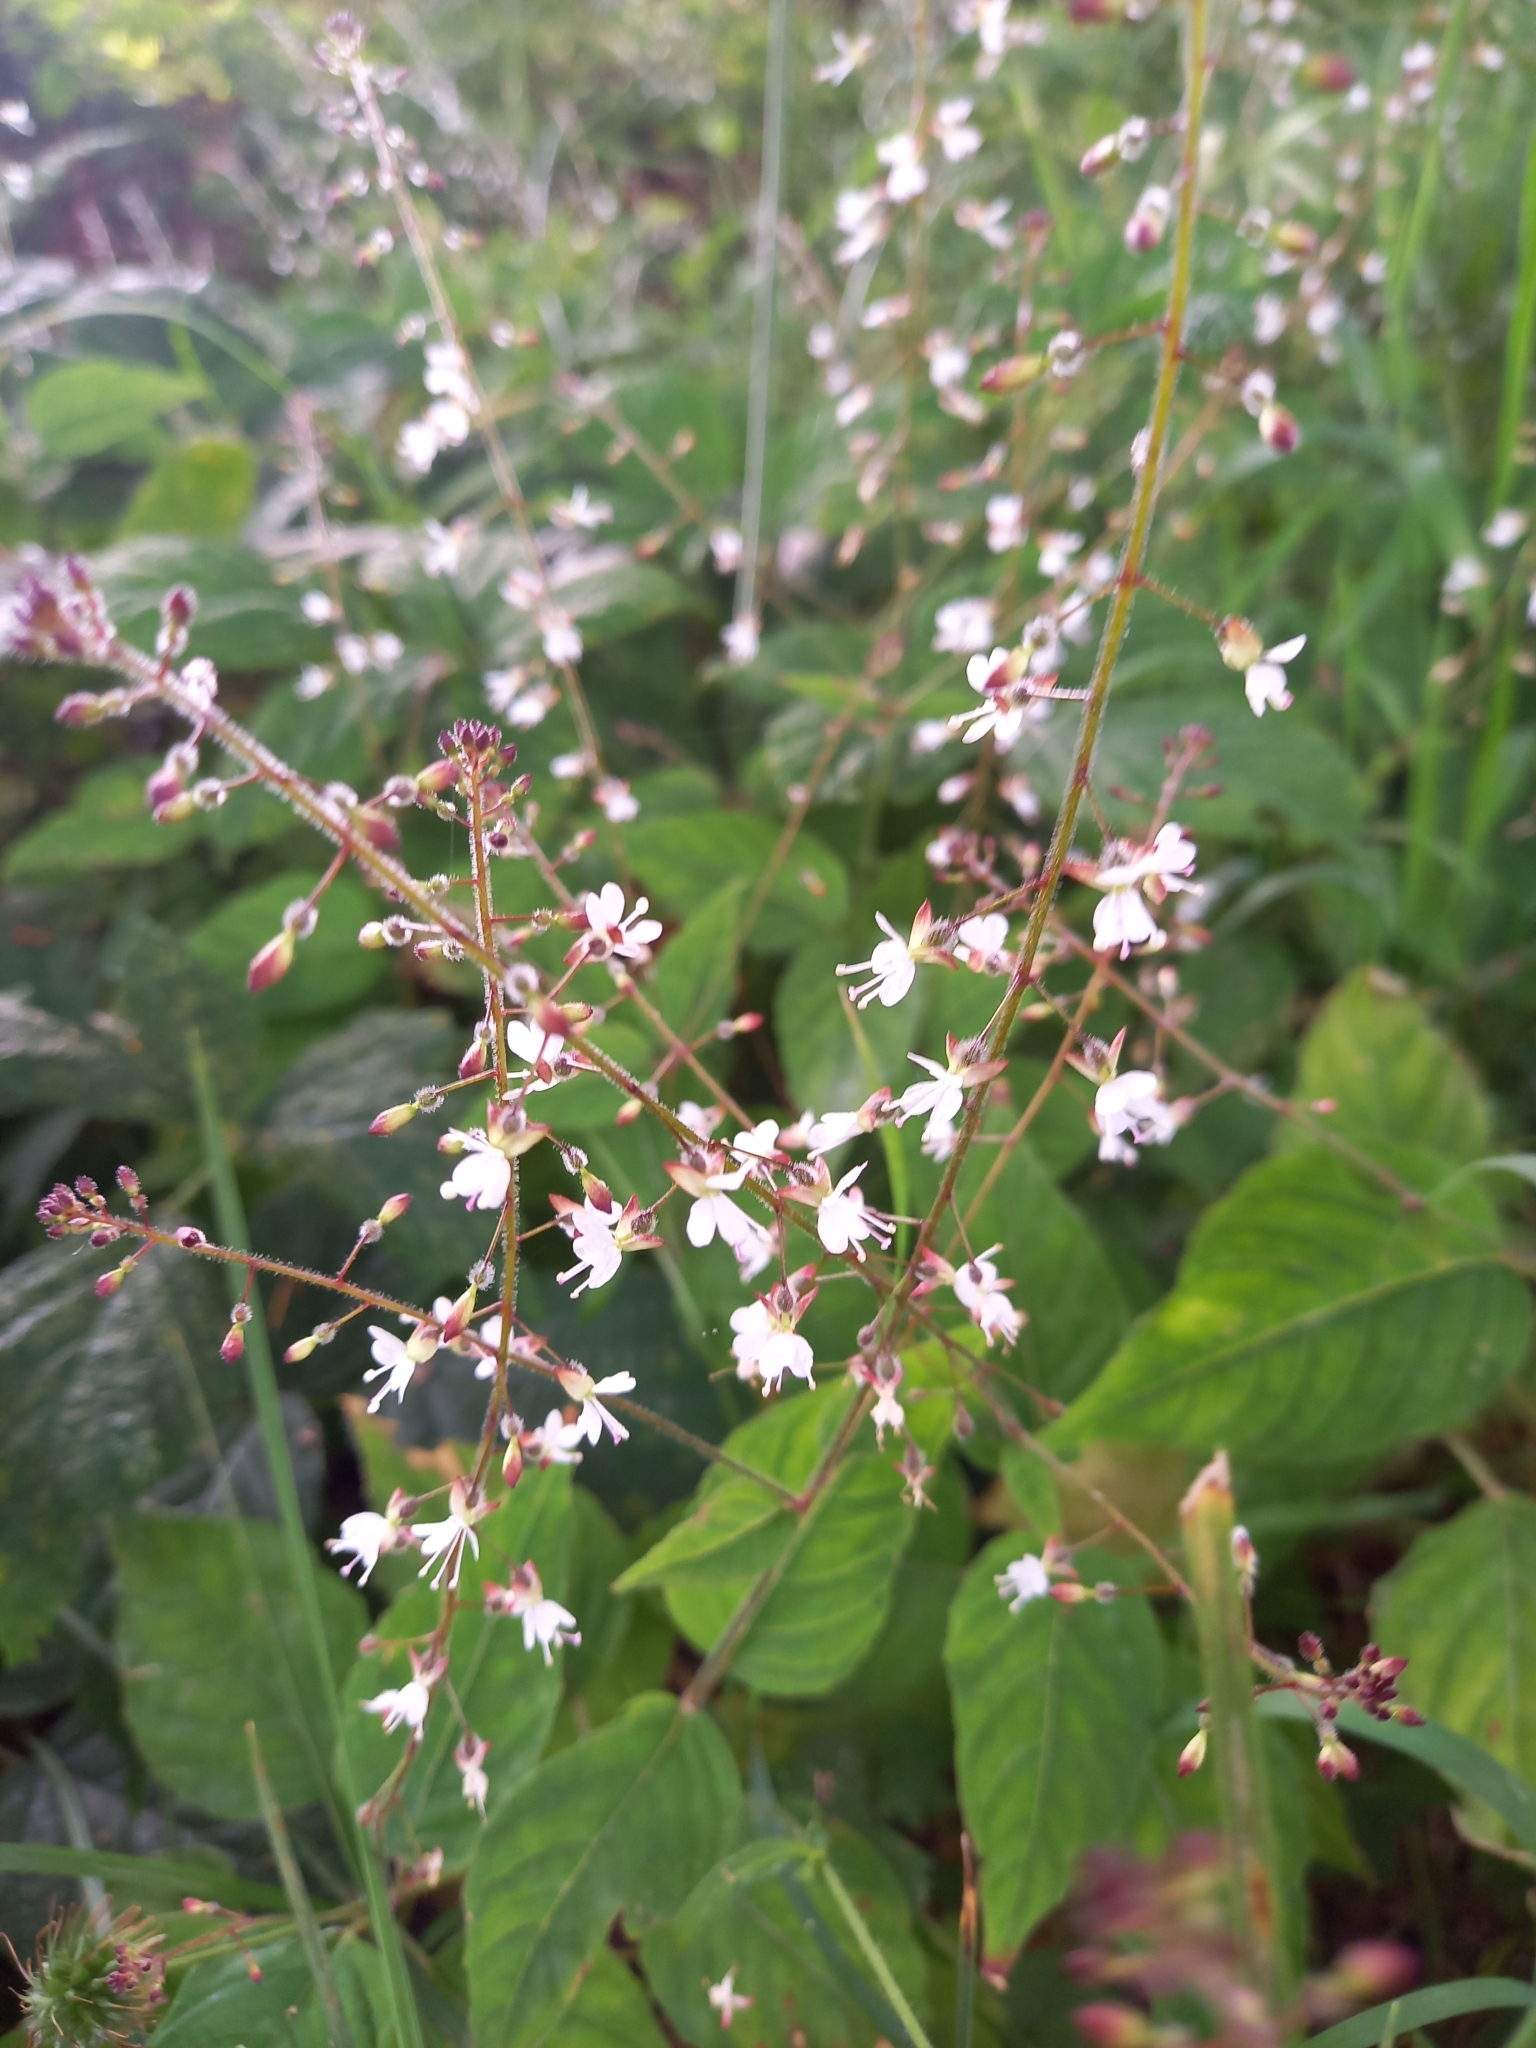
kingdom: Plantae
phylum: Tracheophyta
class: Magnoliopsida
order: Myrtales
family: Onagraceae
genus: Circaea
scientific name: Circaea lutetiana
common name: Enchanter's-nightshade
